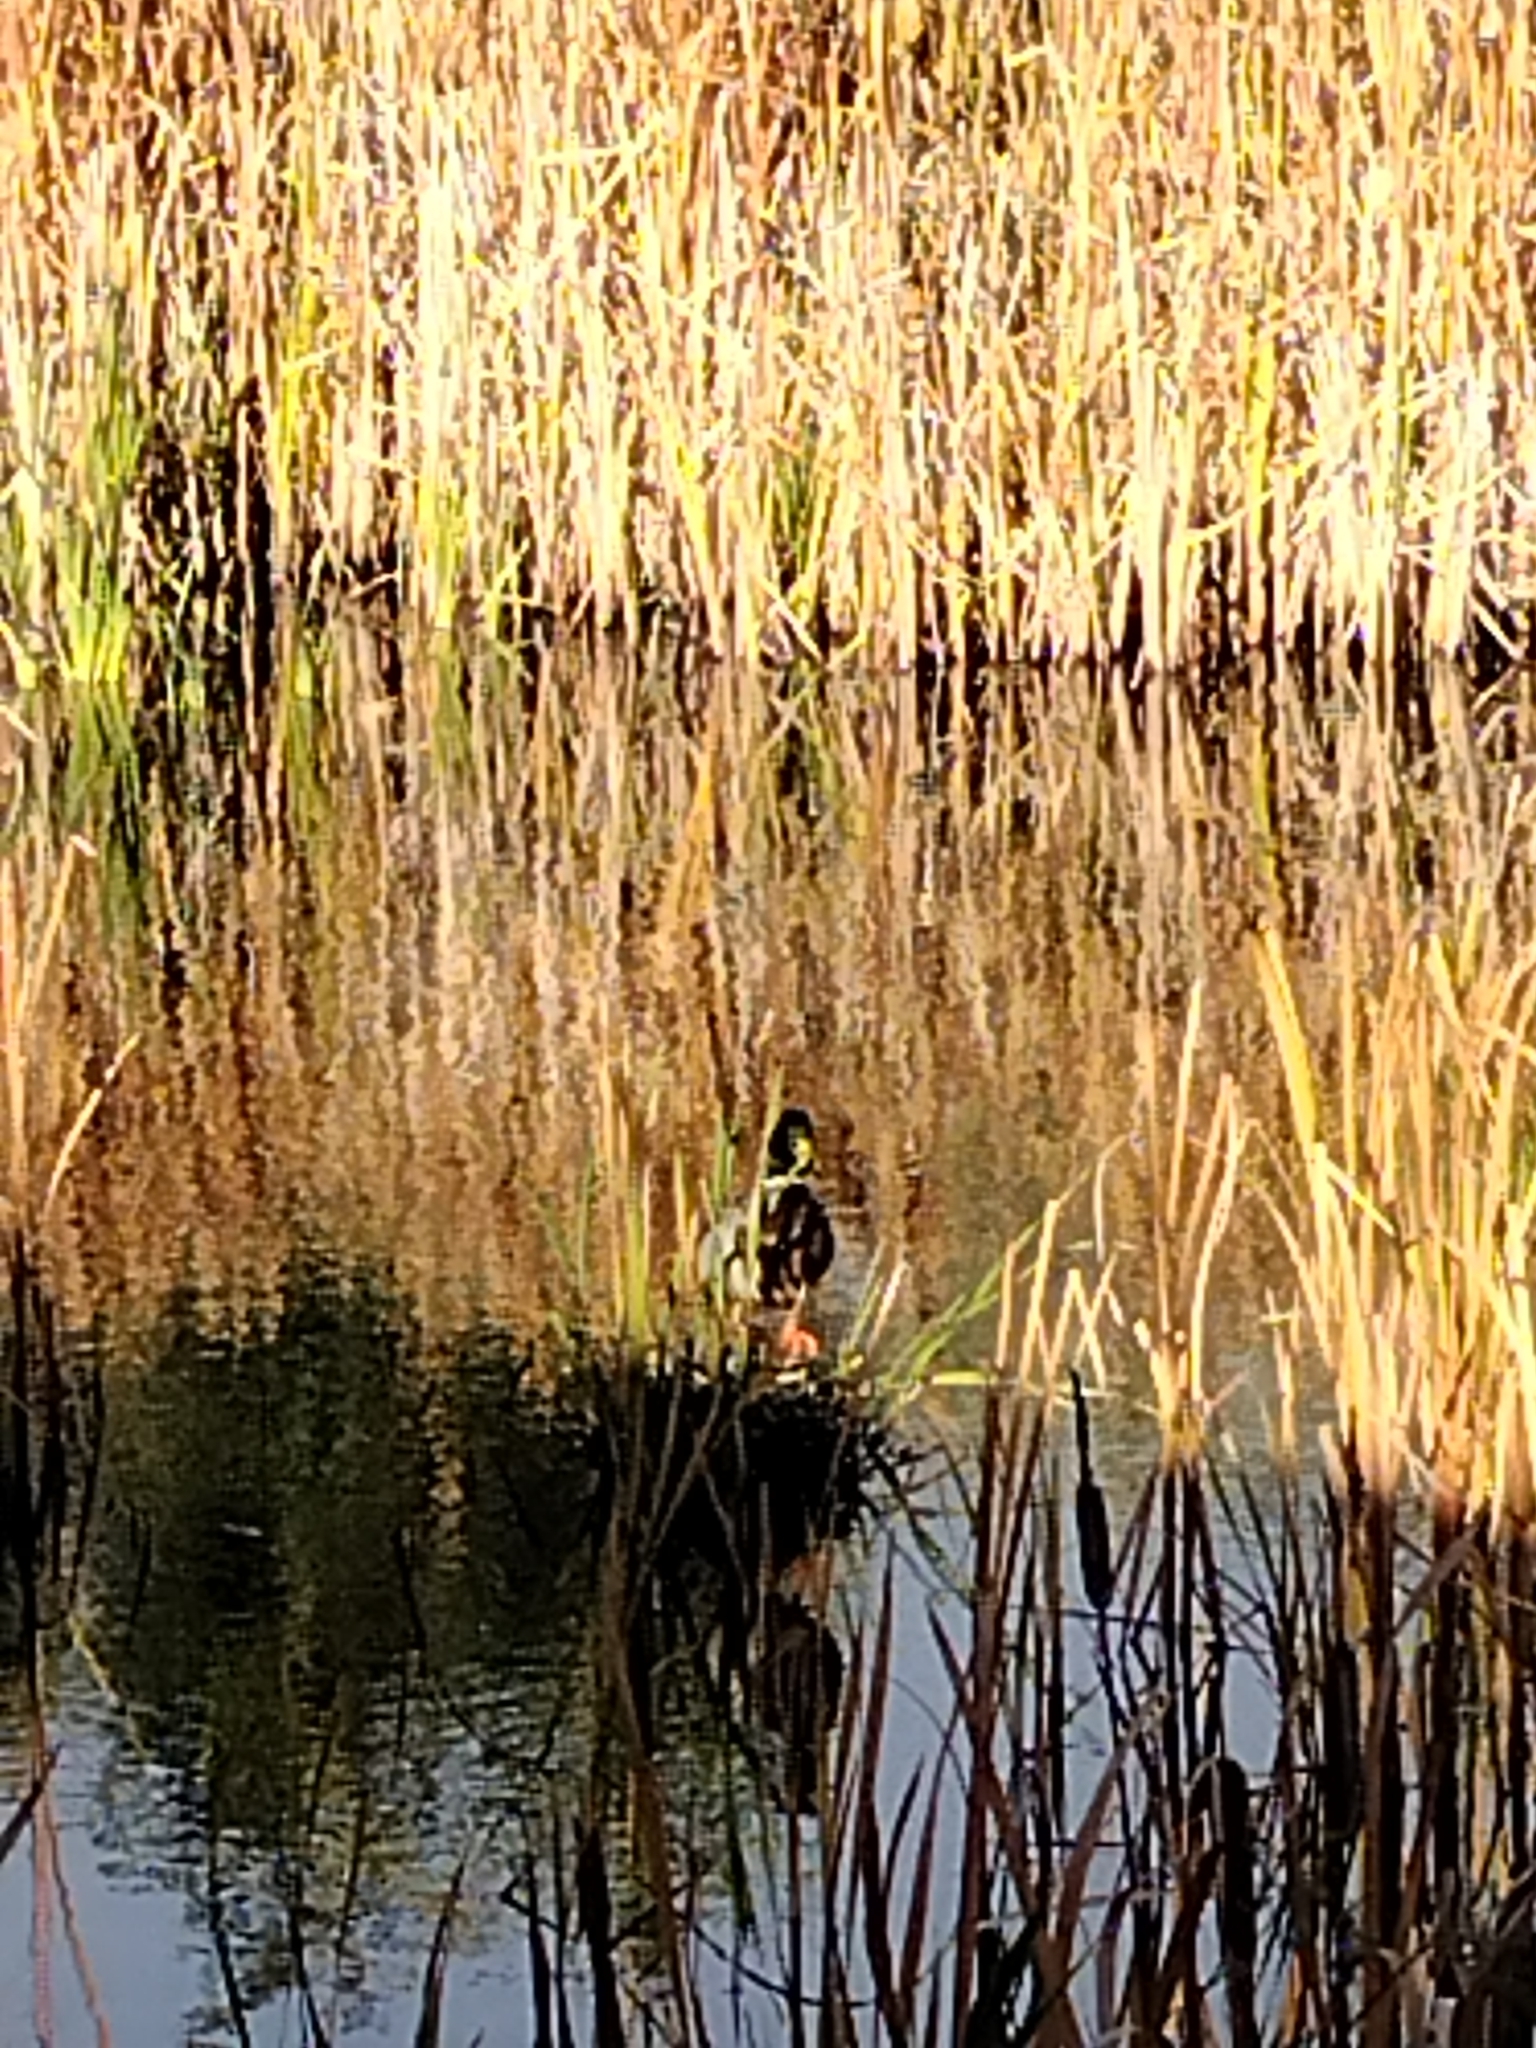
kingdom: Animalia
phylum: Chordata
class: Aves
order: Anseriformes
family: Anatidae
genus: Anas
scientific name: Anas platyrhynchos
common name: Mallard
